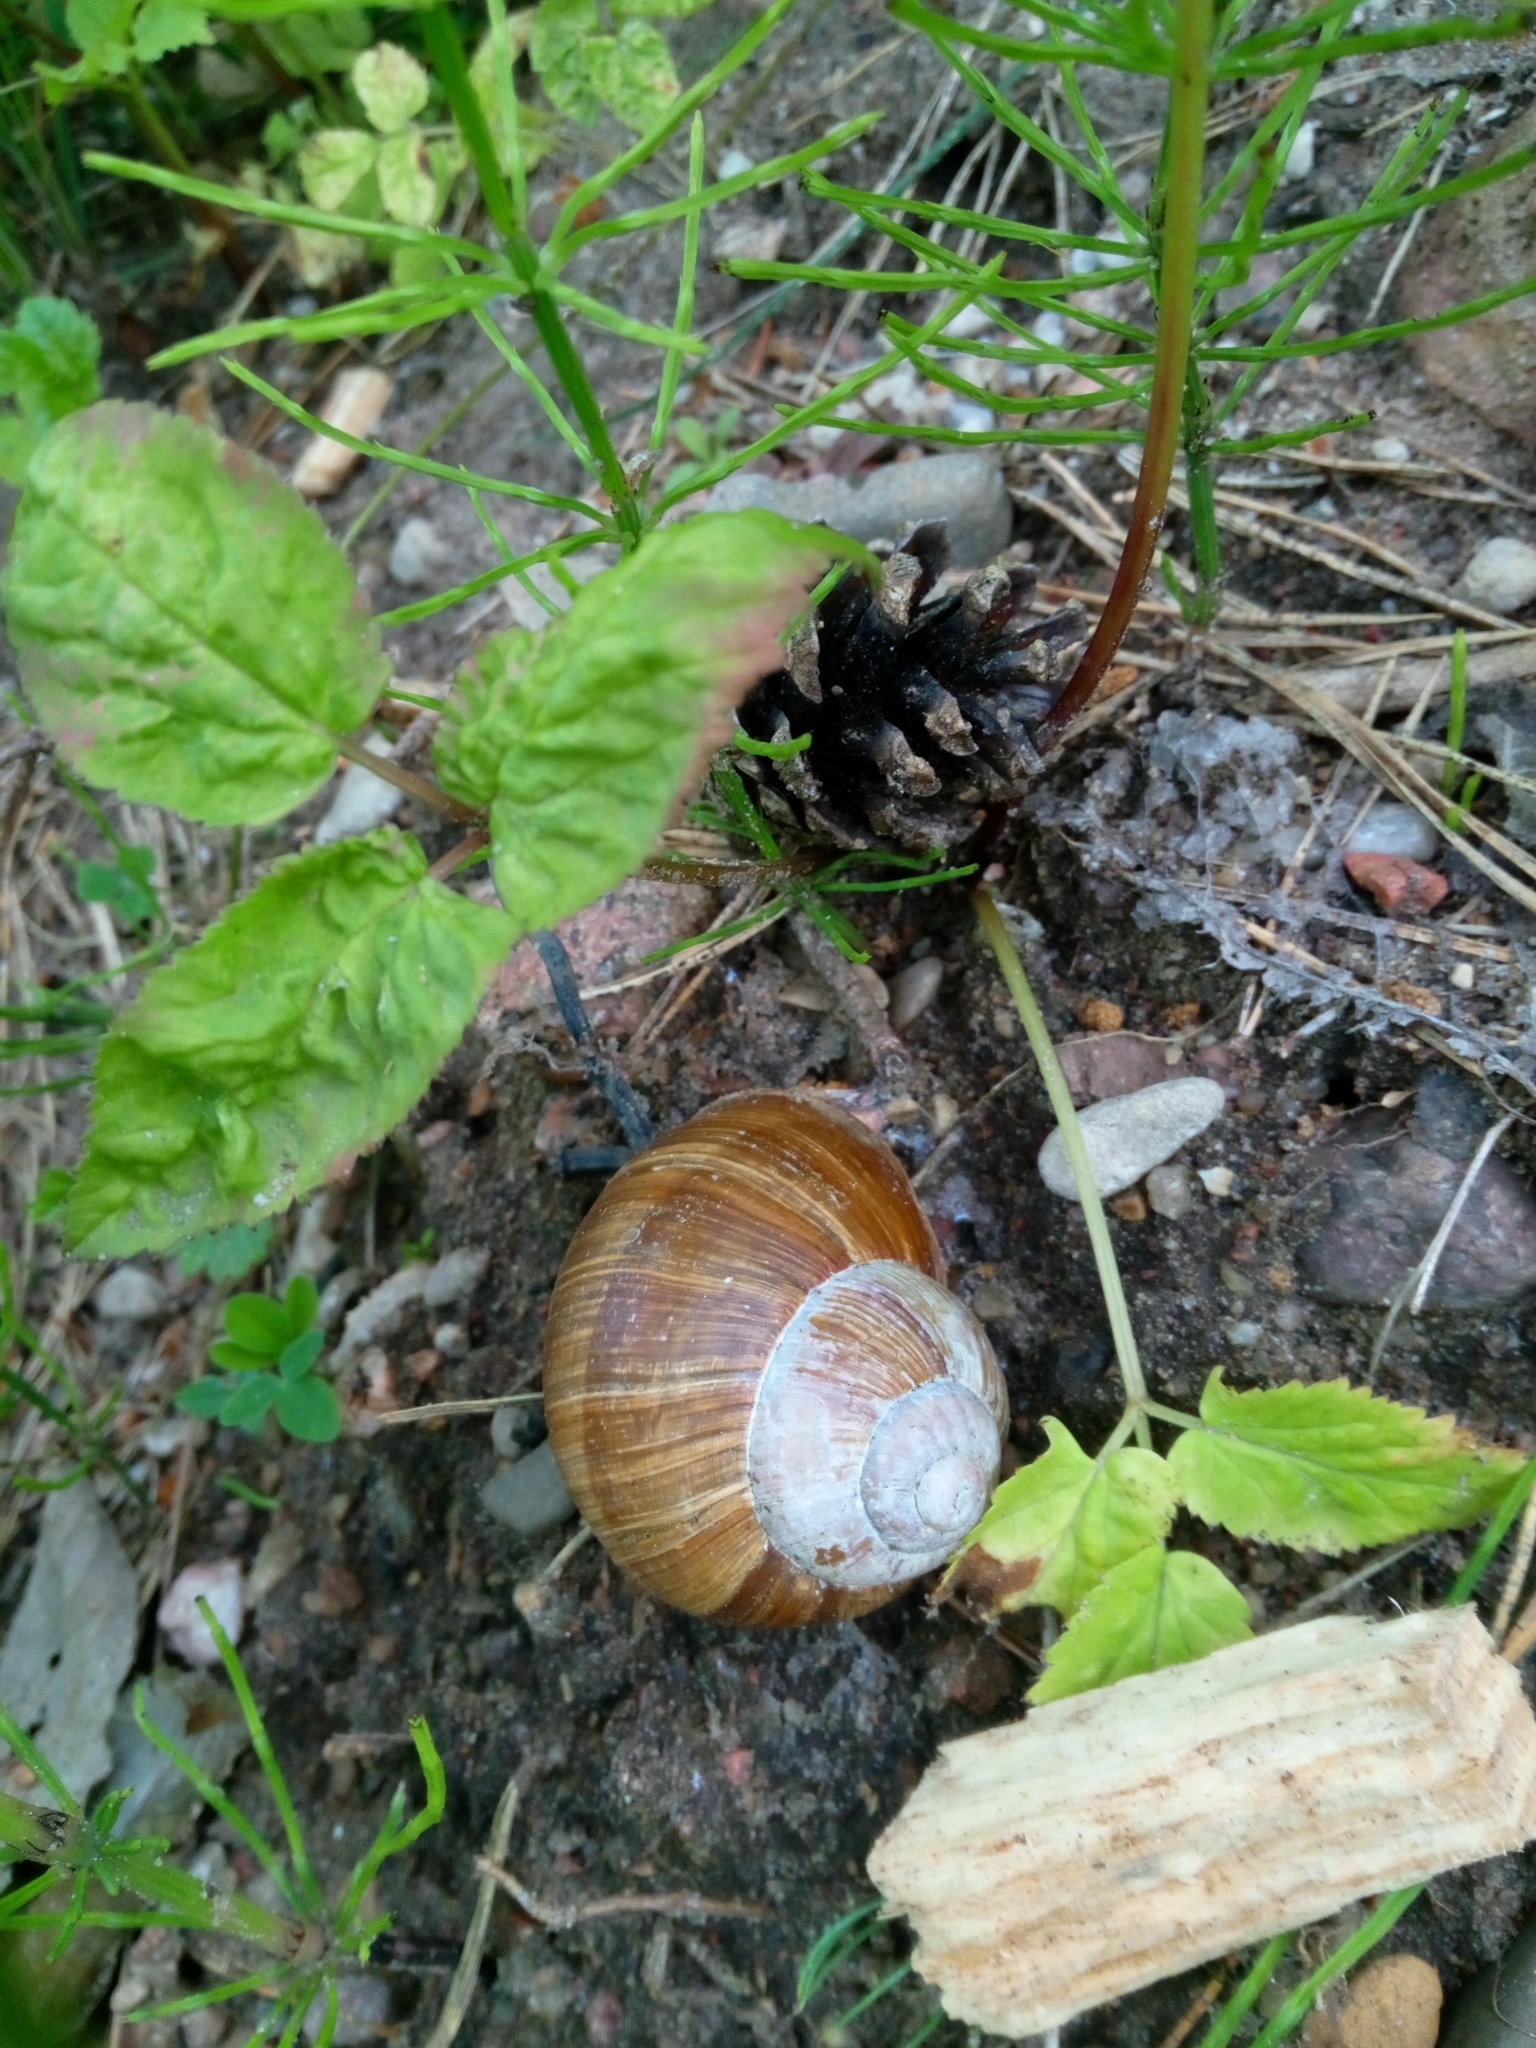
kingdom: Animalia
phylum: Mollusca
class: Gastropoda
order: Stylommatophora
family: Helicidae
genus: Helix
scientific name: Helix pomatia
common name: Roman snail
